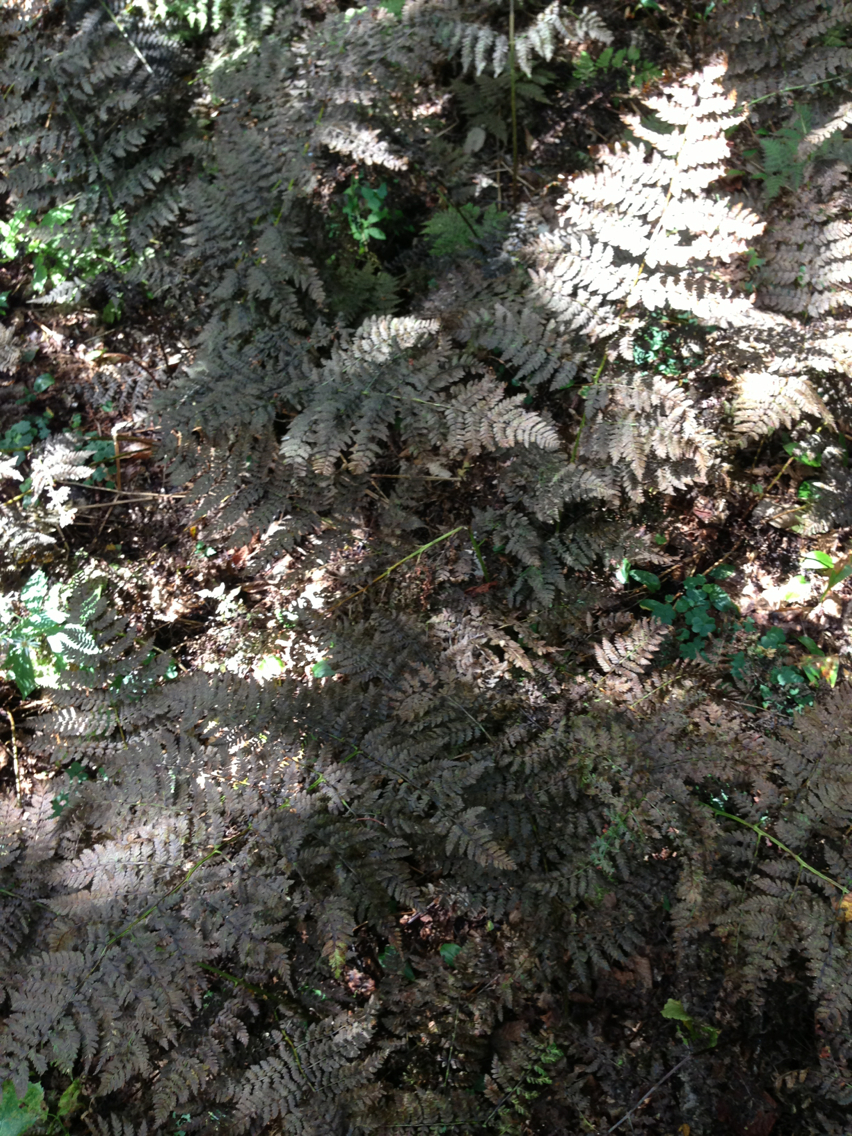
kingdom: Plantae
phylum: Tracheophyta
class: Polypodiopsida
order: Polypodiales
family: Dryopteridaceae
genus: Dryopteris
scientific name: Dryopteris campyloptera
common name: Mountain wood fern
